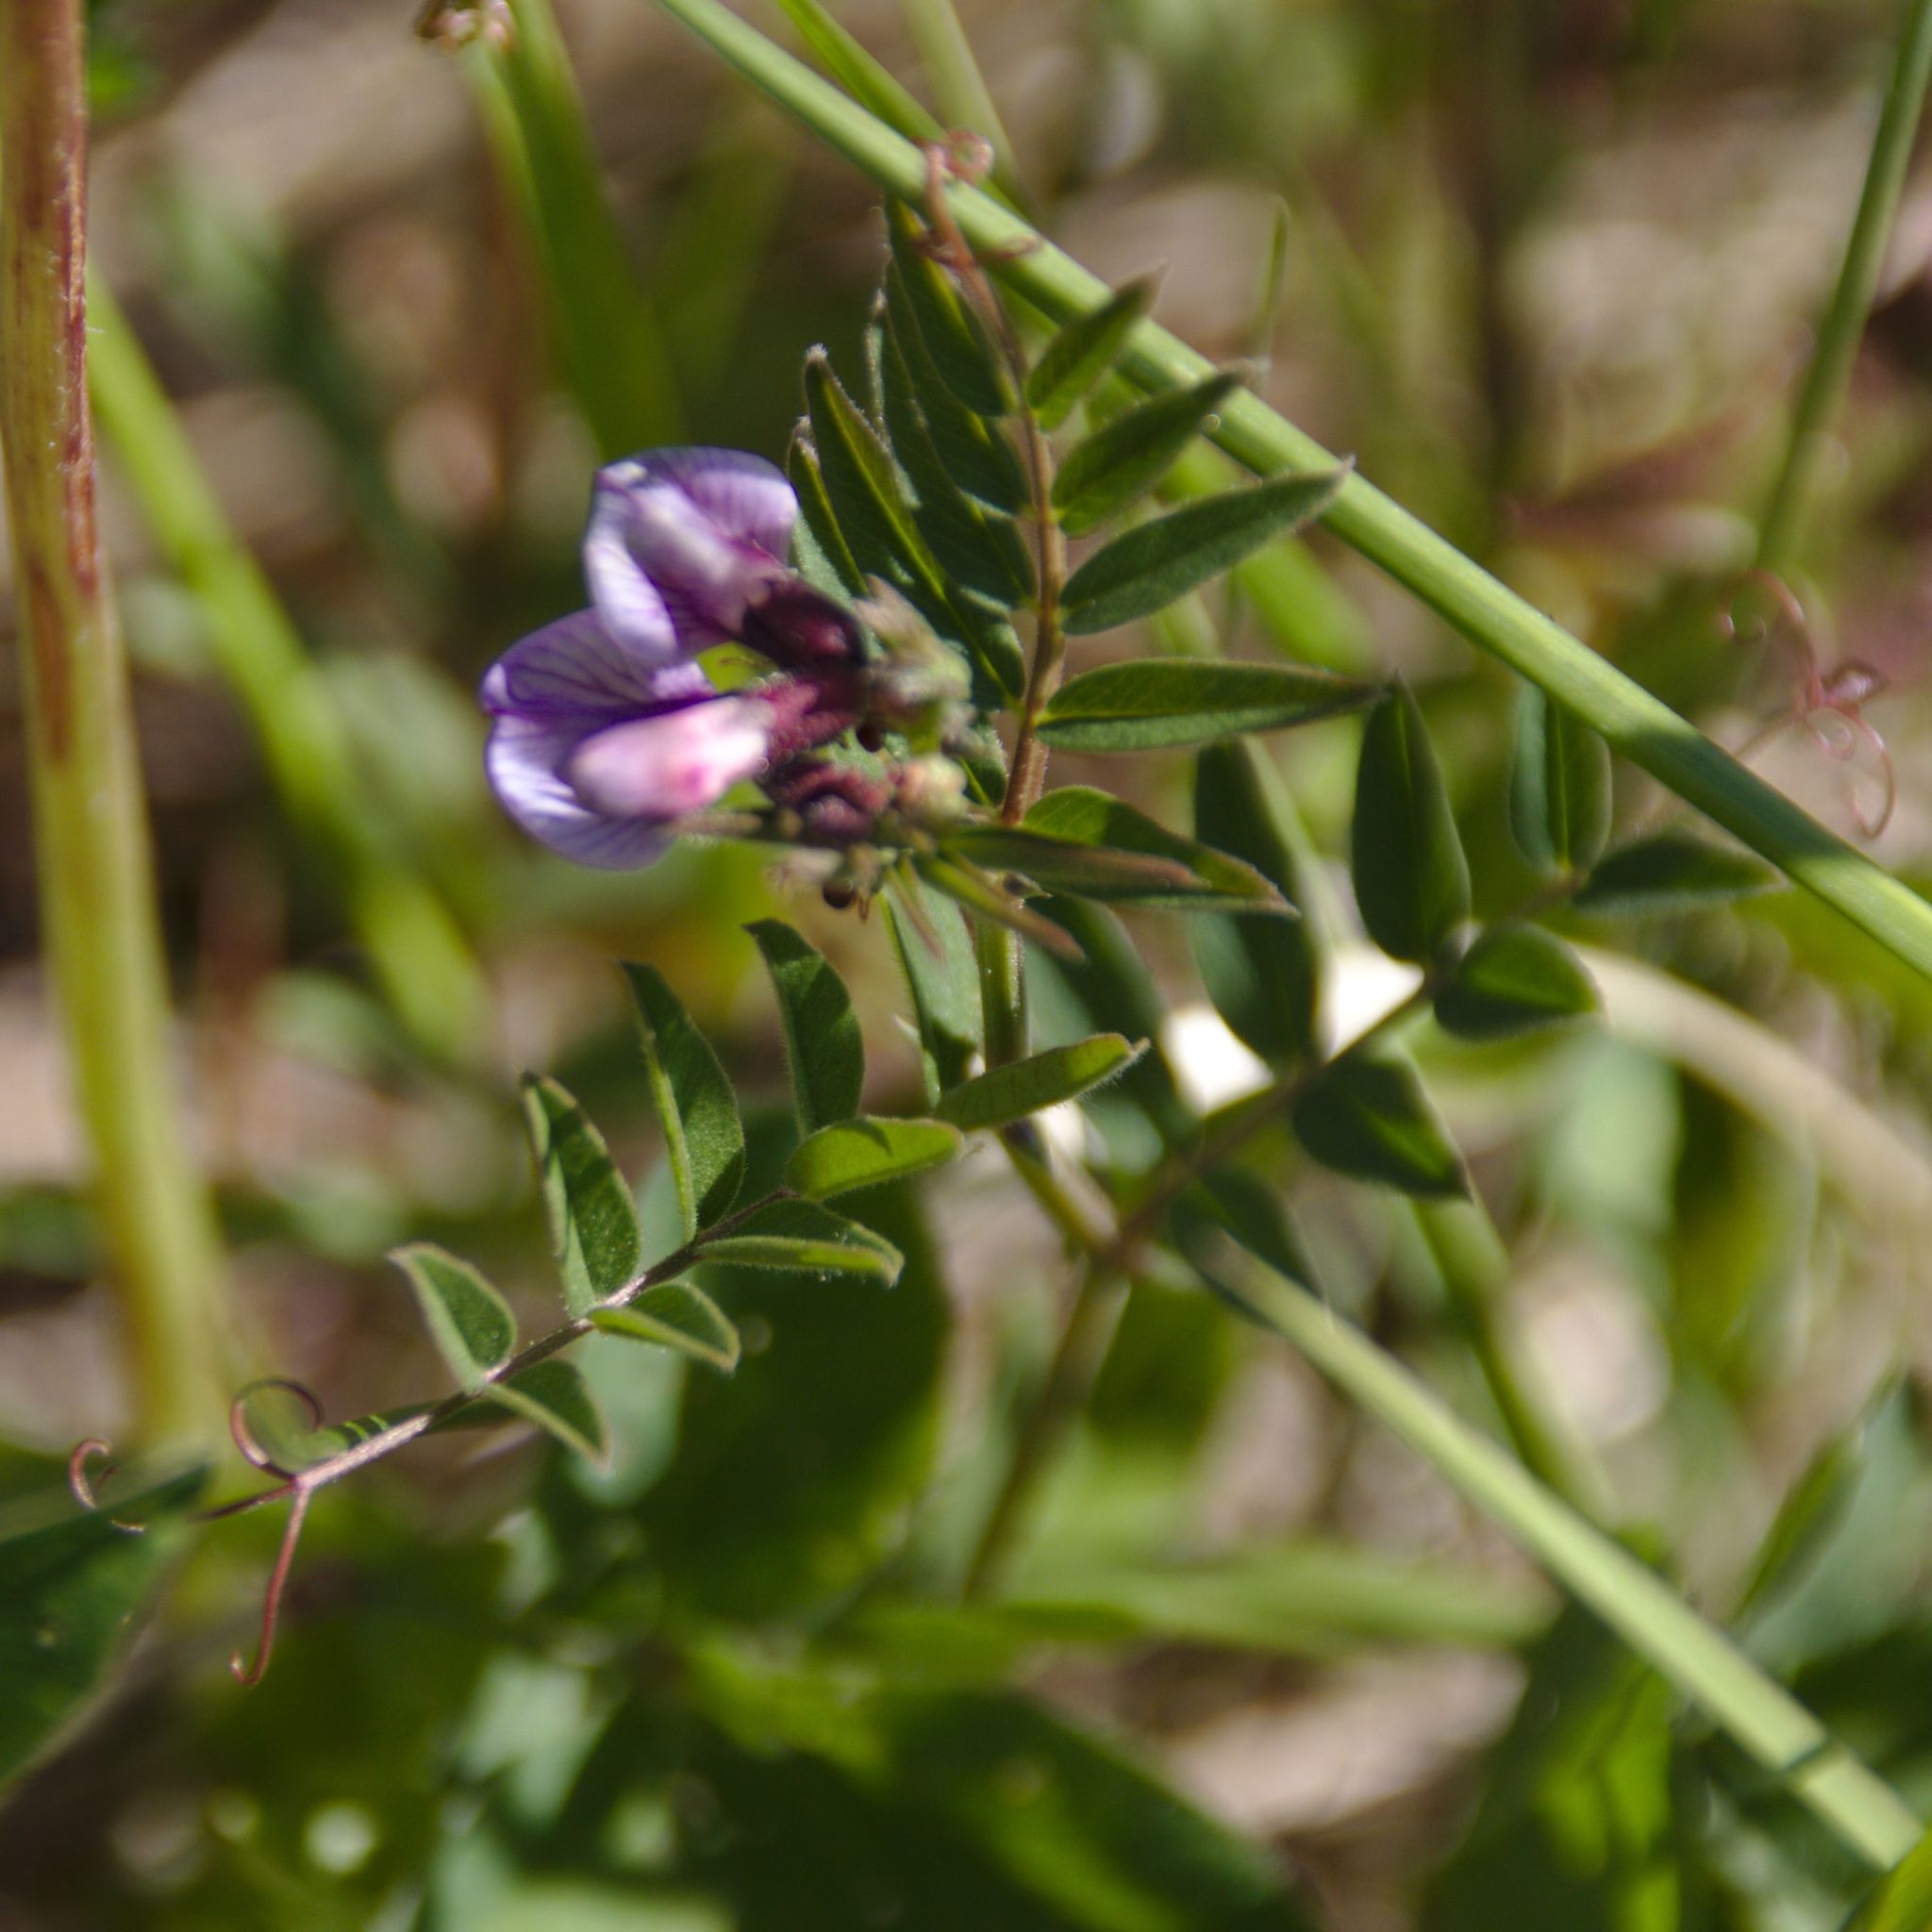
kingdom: Plantae
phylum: Tracheophyta
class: Magnoliopsida
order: Fabales
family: Fabaceae
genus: Vicia
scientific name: Vicia sepium
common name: Bush vetch
